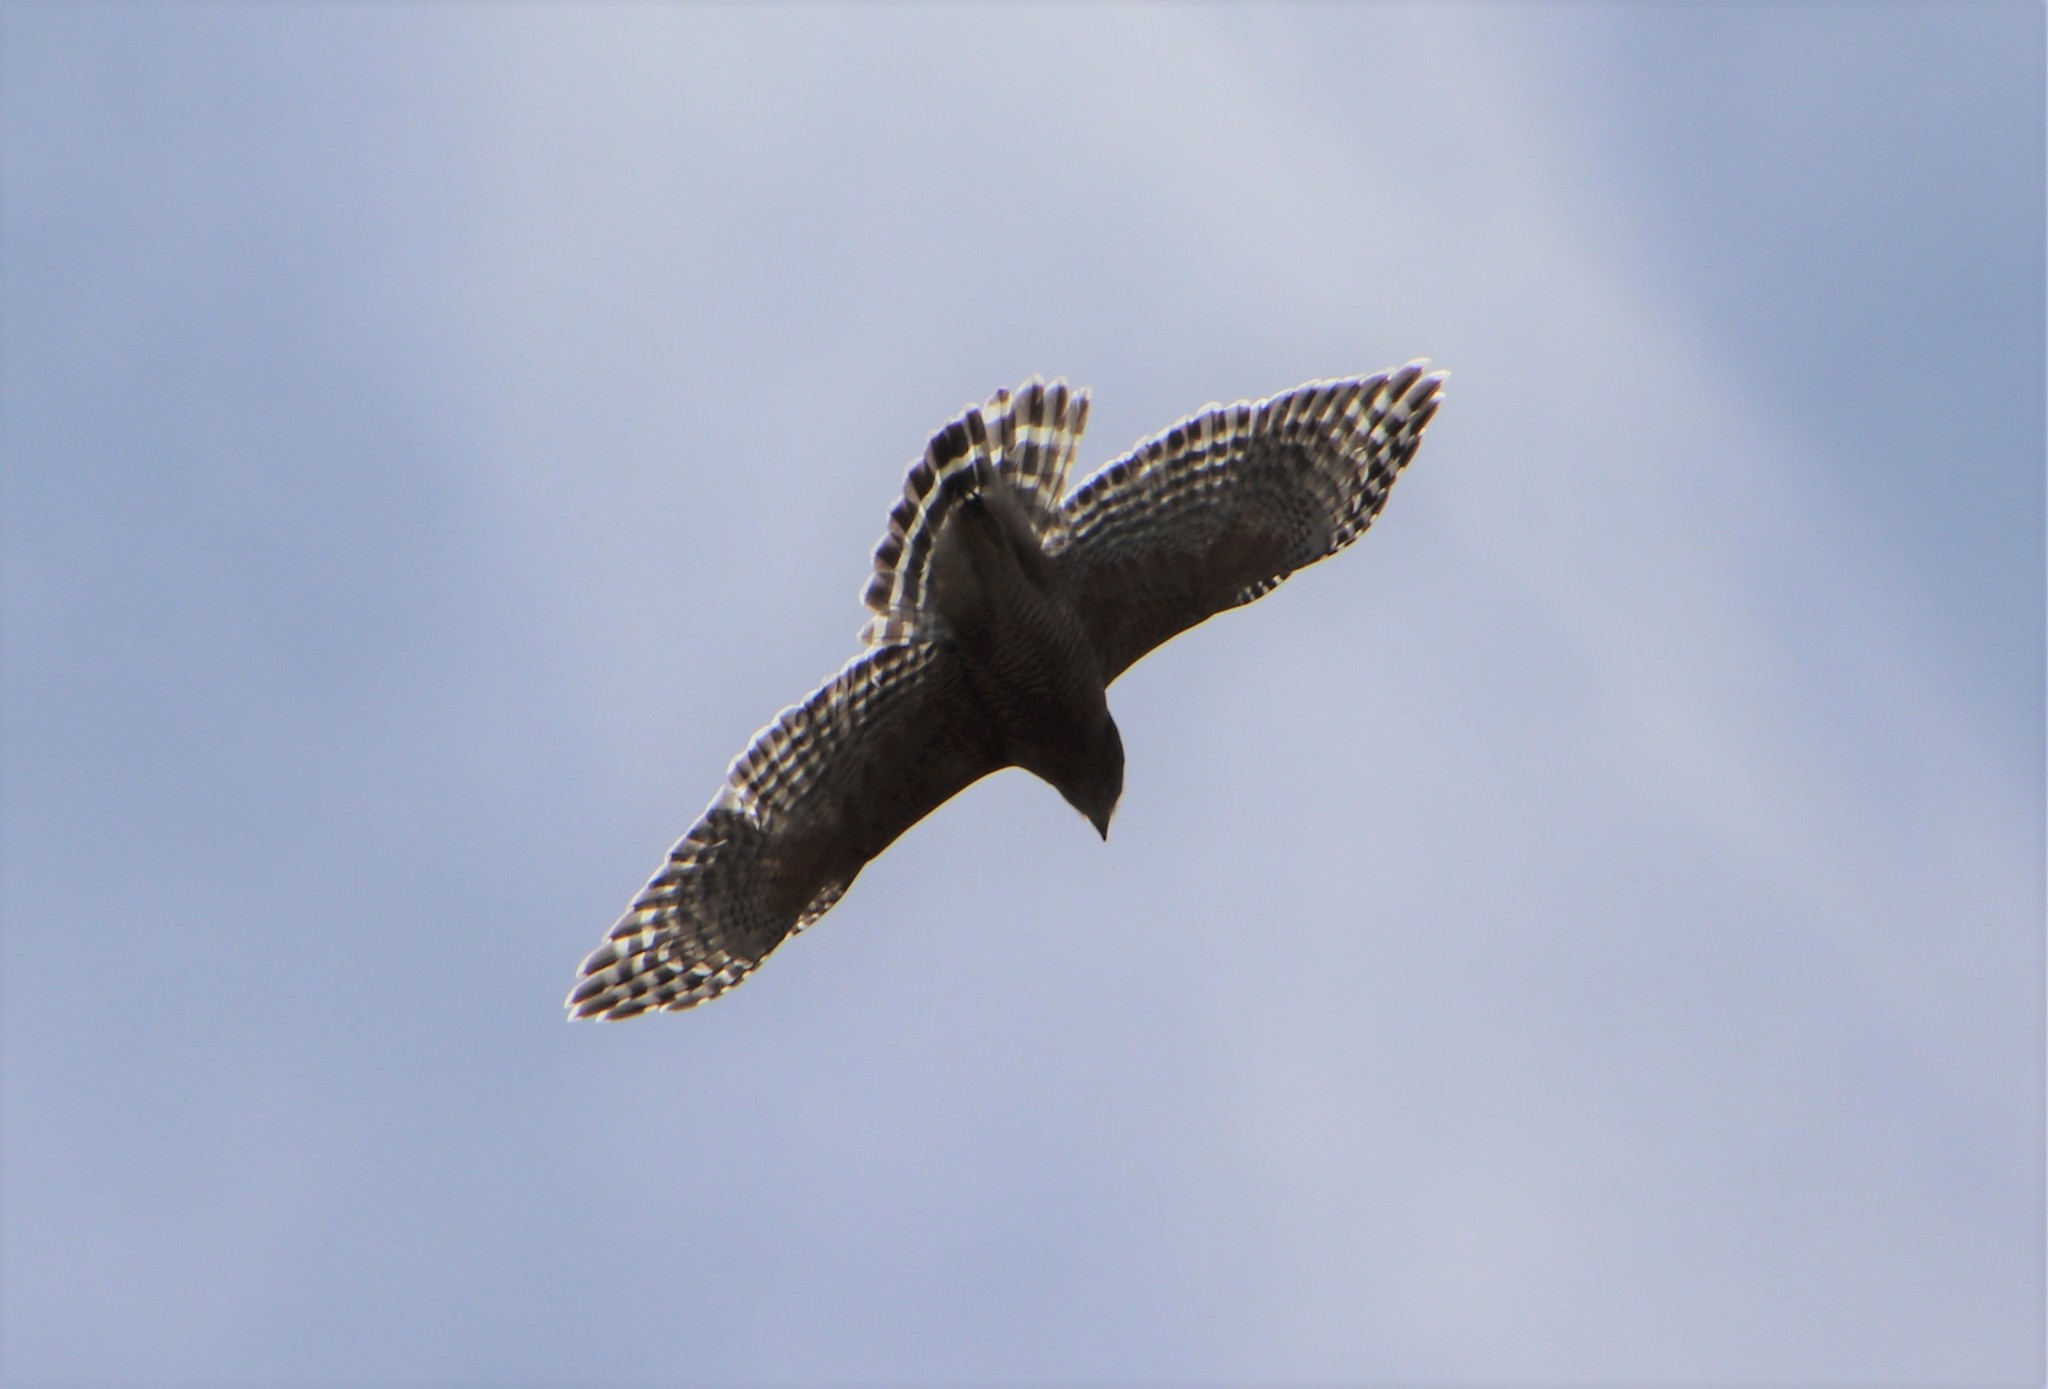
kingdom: Animalia
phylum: Chordata
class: Aves
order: Accipitriformes
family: Accipitridae
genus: Buteo
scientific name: Buteo lineatus
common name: Red-shouldered hawk
